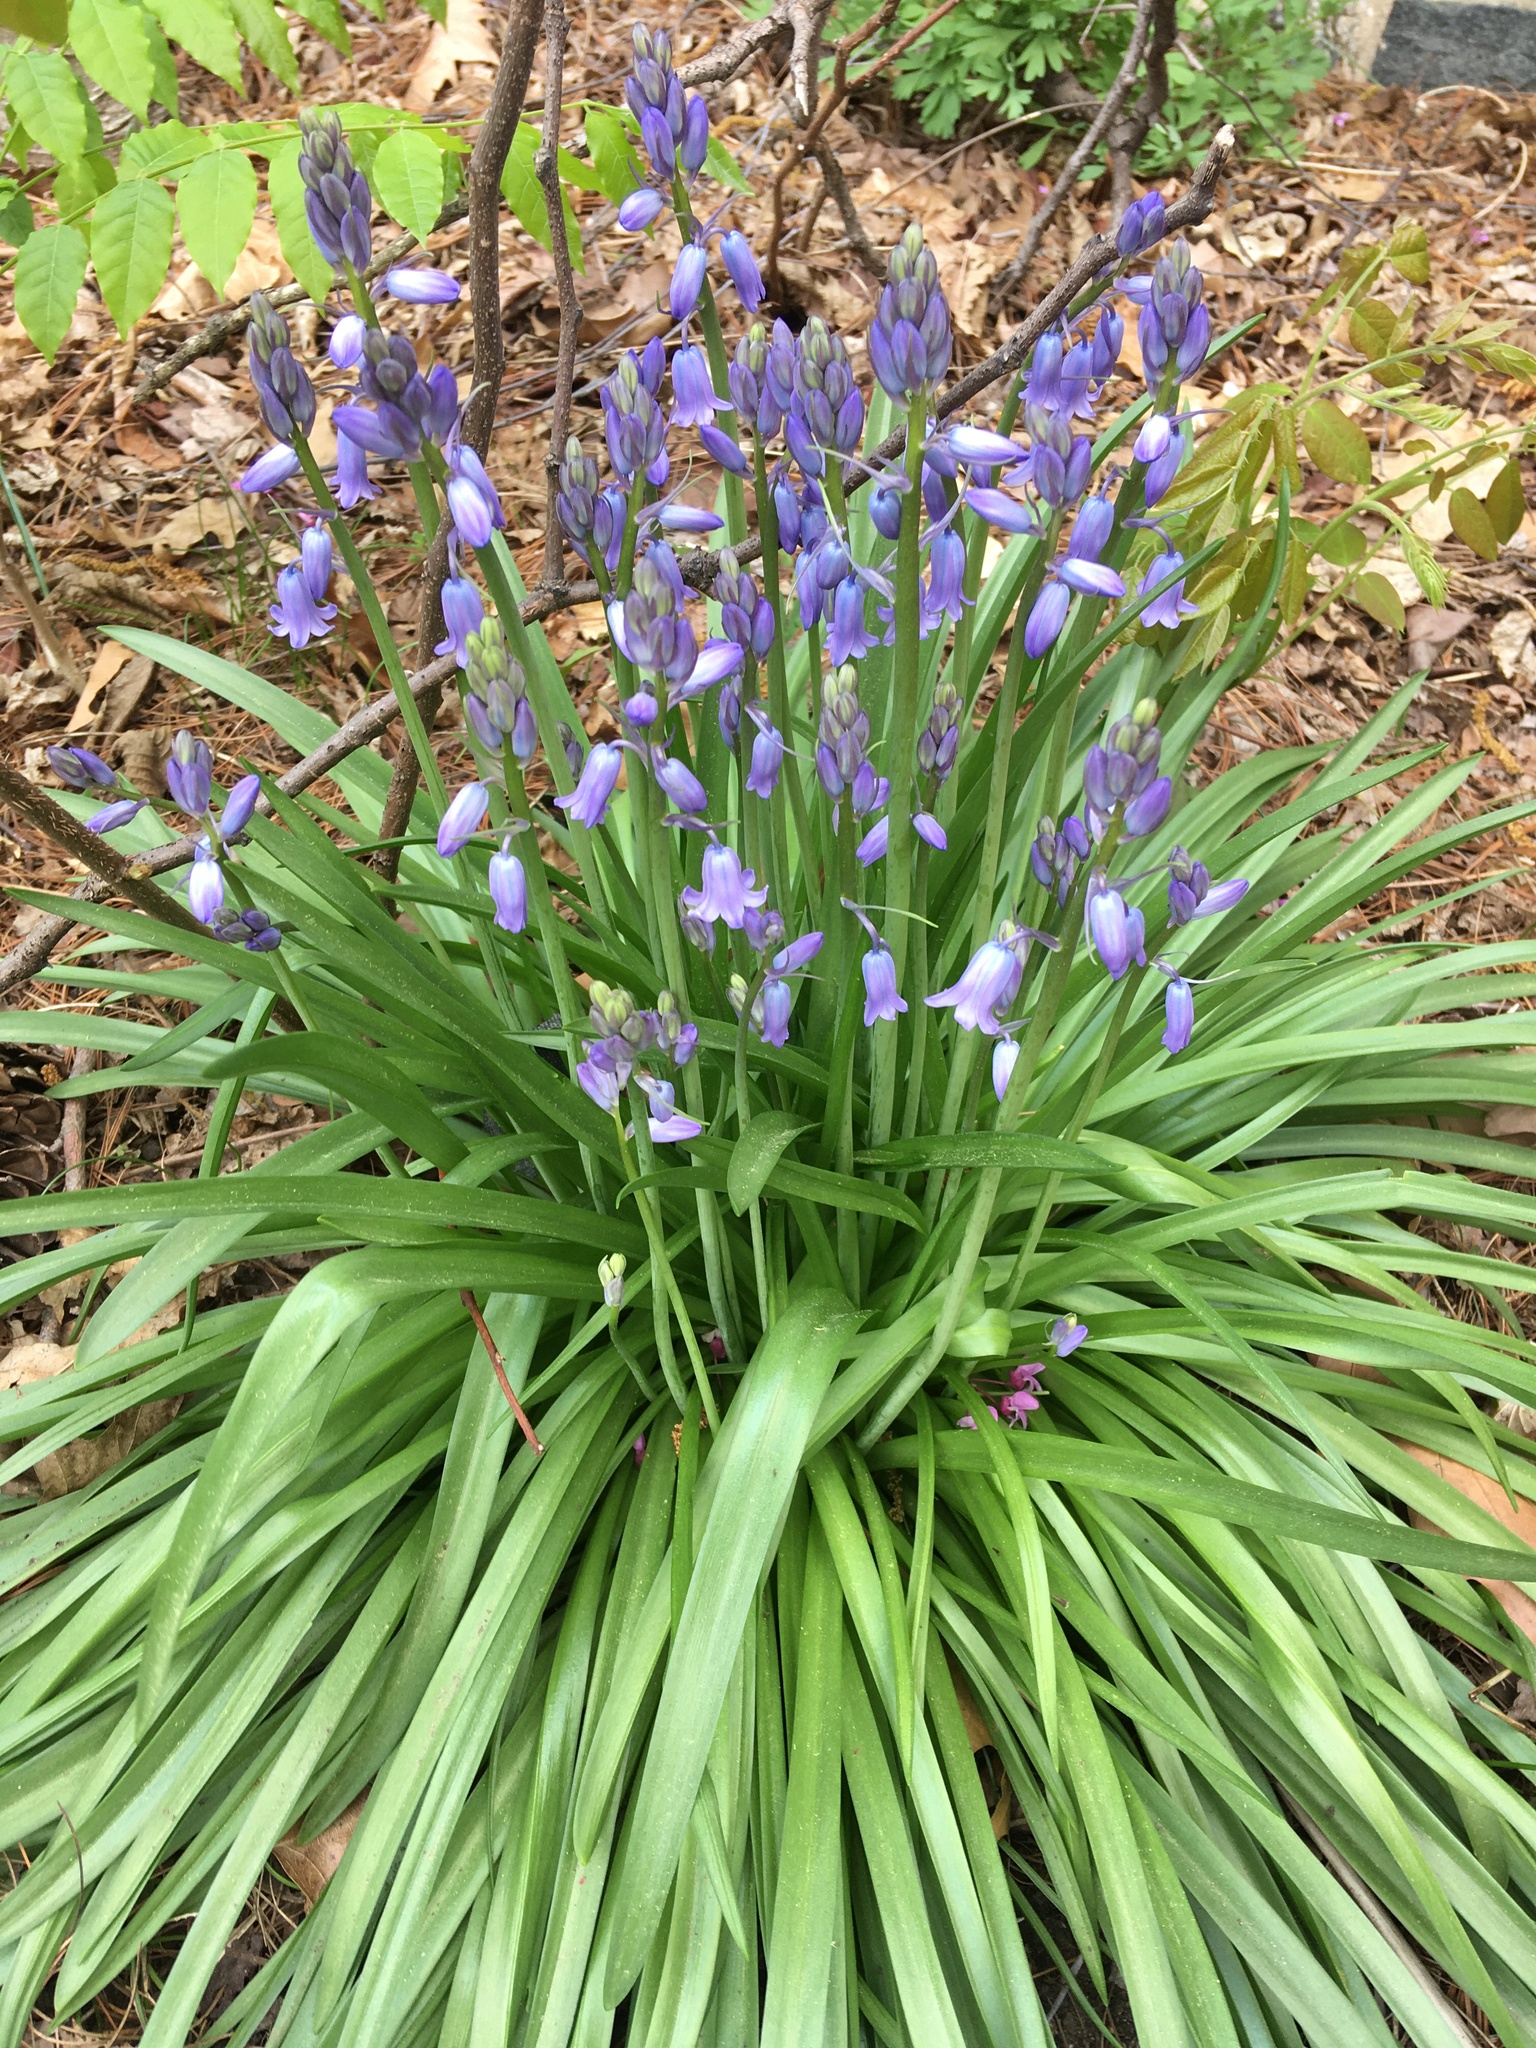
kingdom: Plantae
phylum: Tracheophyta
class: Liliopsida
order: Asparagales
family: Asparagaceae
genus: Hyacinthoides
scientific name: Hyacinthoides hispanica
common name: Spanish bluebell
